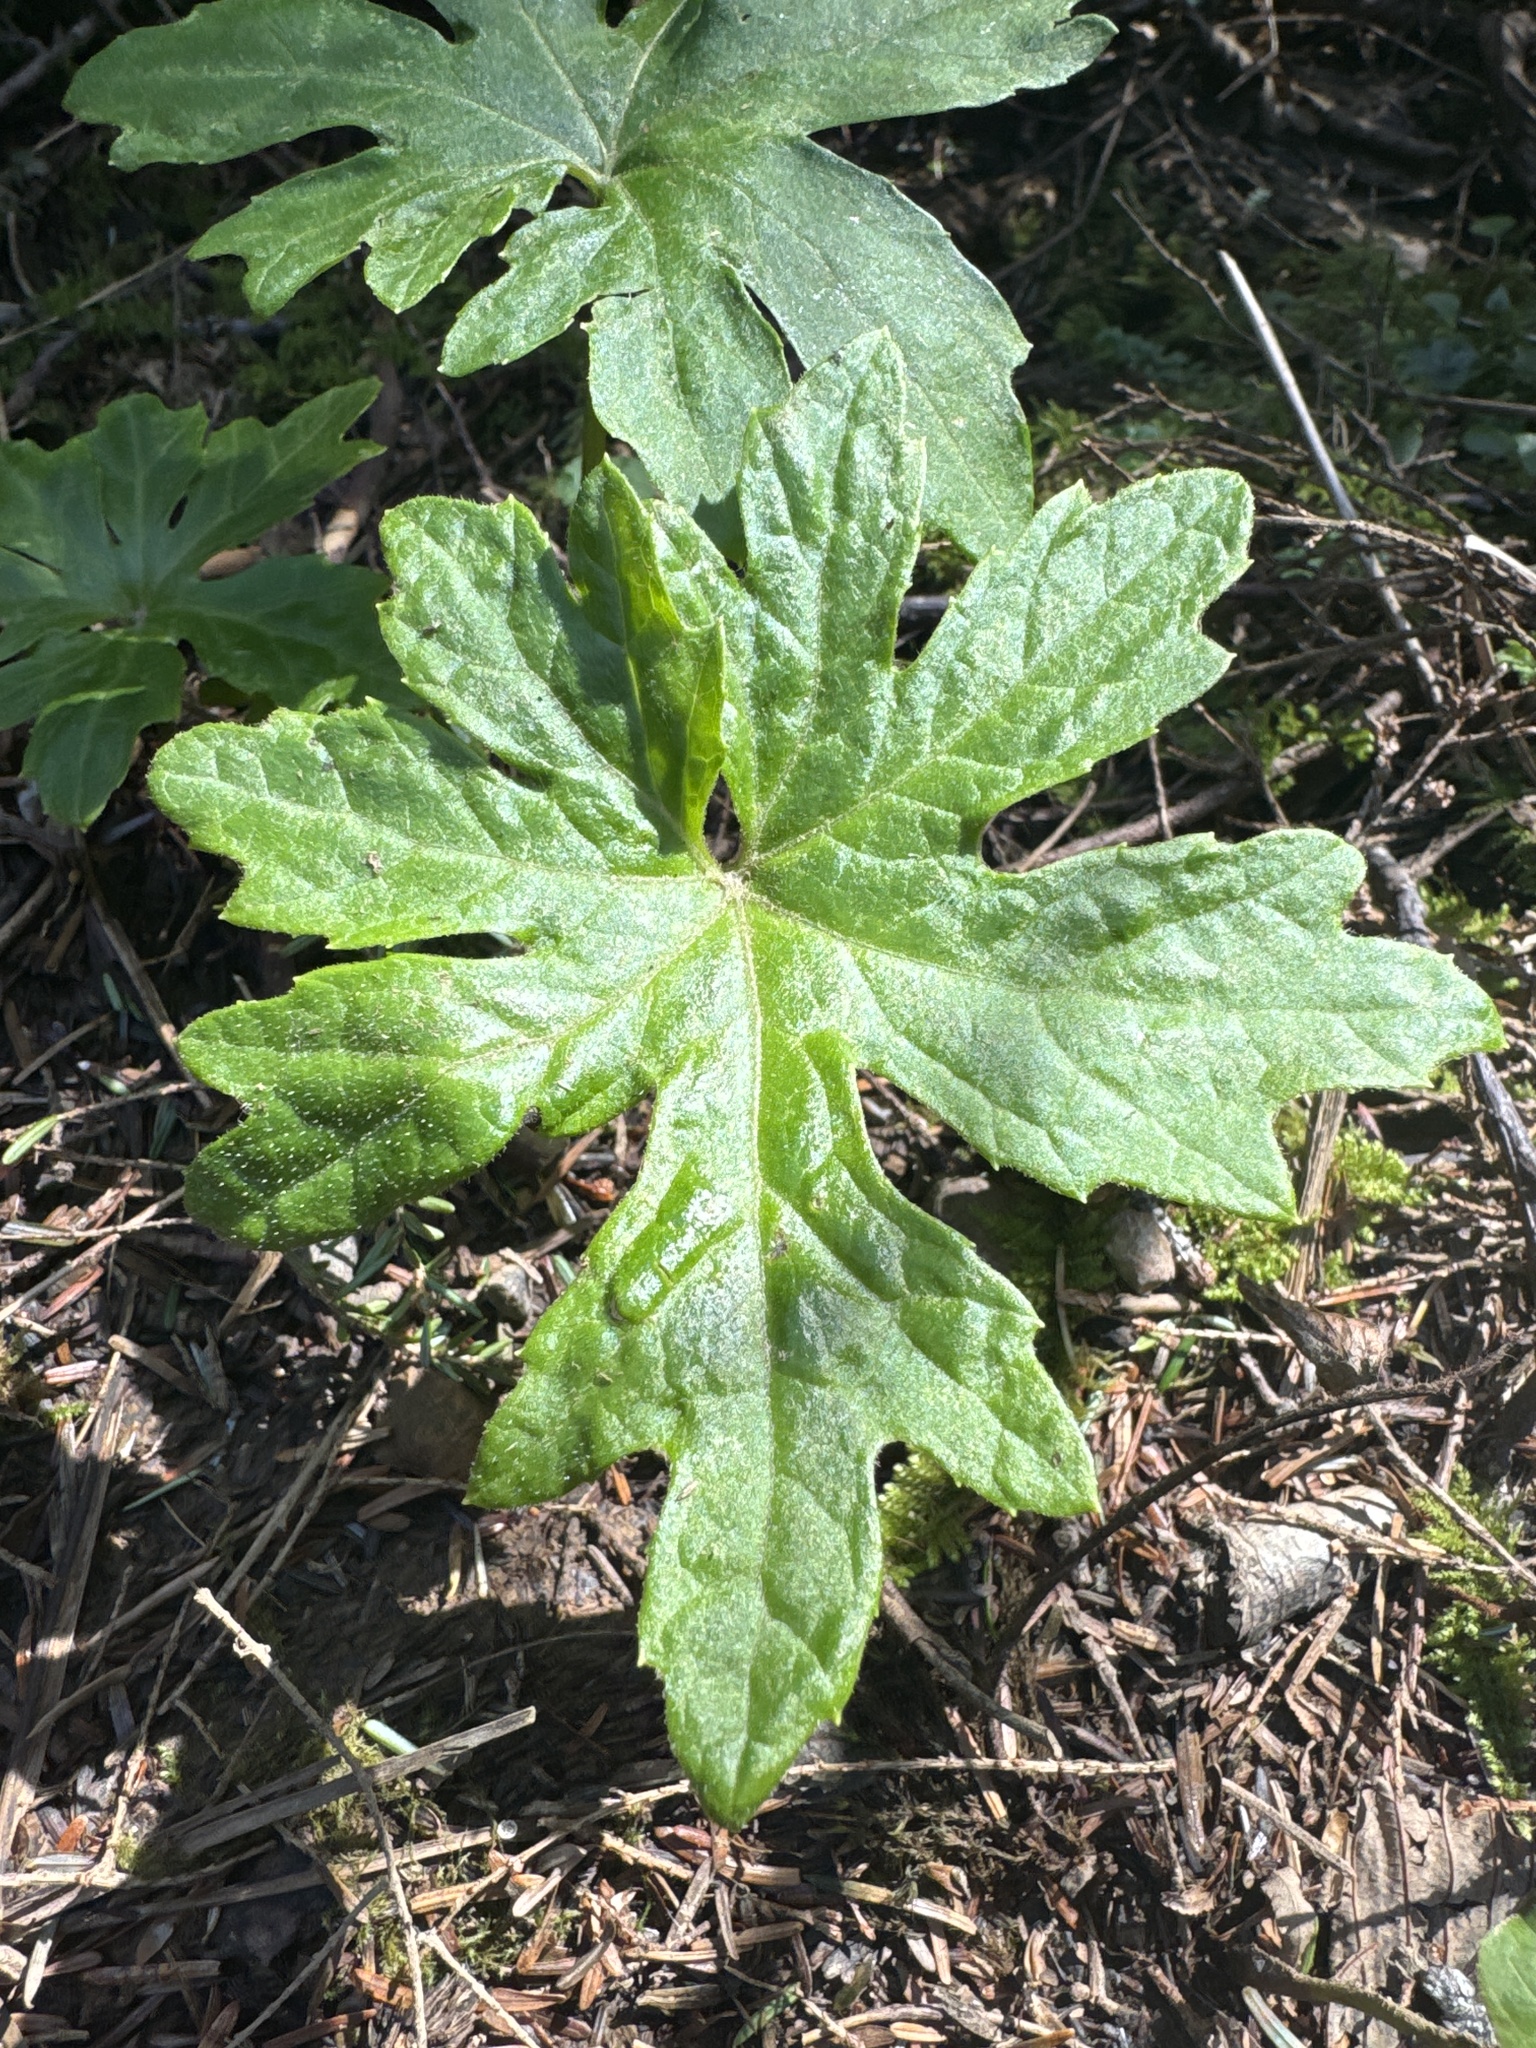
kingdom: Plantae
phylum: Tracheophyta
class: Magnoliopsida
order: Asterales
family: Asteraceae
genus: Petasites
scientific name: Petasites frigidus
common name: Arctic butterbur
